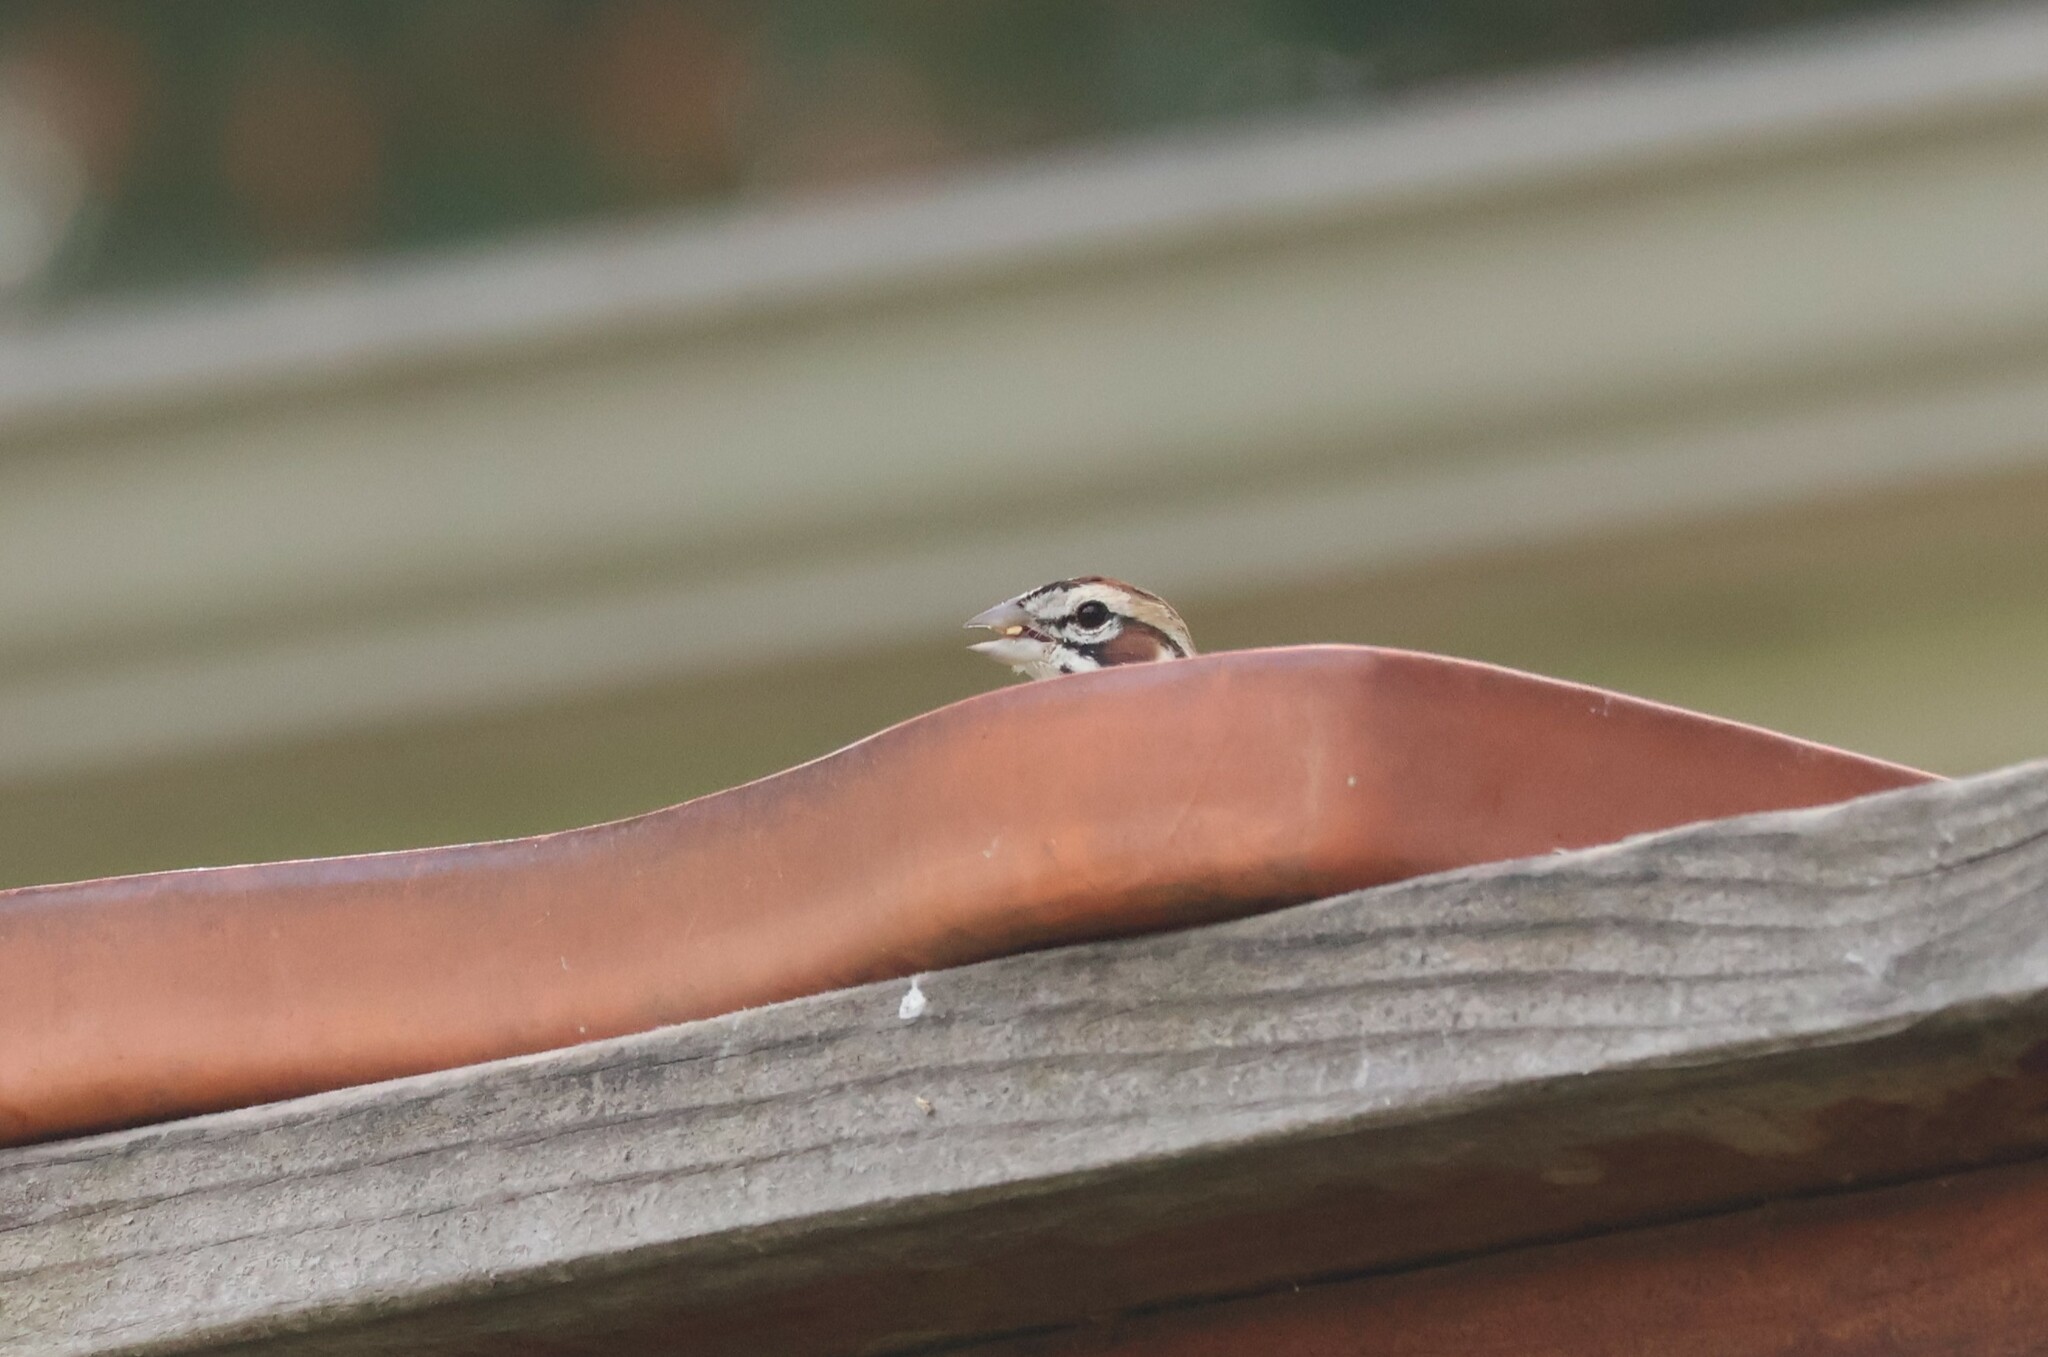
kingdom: Animalia
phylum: Chordata
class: Aves
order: Passeriformes
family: Passerellidae
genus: Chondestes
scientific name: Chondestes grammacus
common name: Lark sparrow
